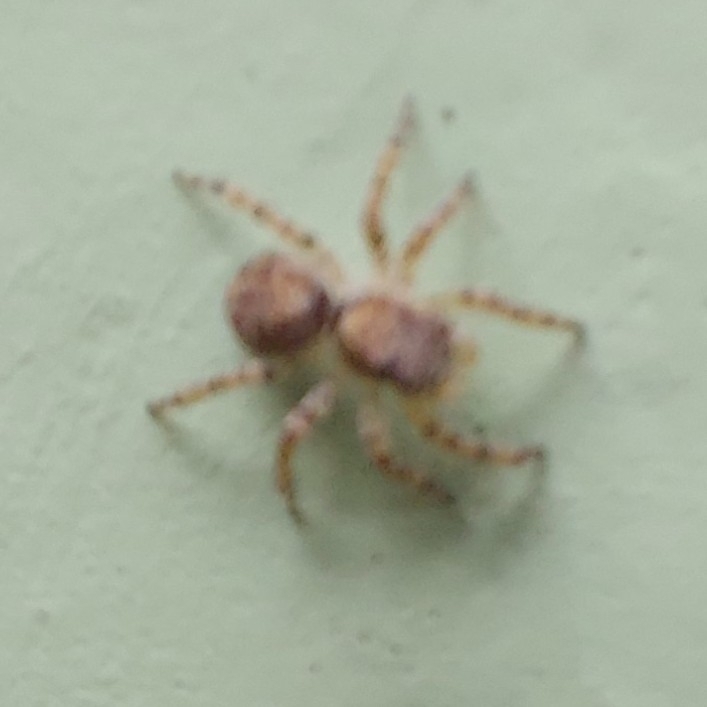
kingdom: Animalia
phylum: Arthropoda
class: Arachnida
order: Araneae
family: Salticidae
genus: Marma
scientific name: Marma nigritarsis
